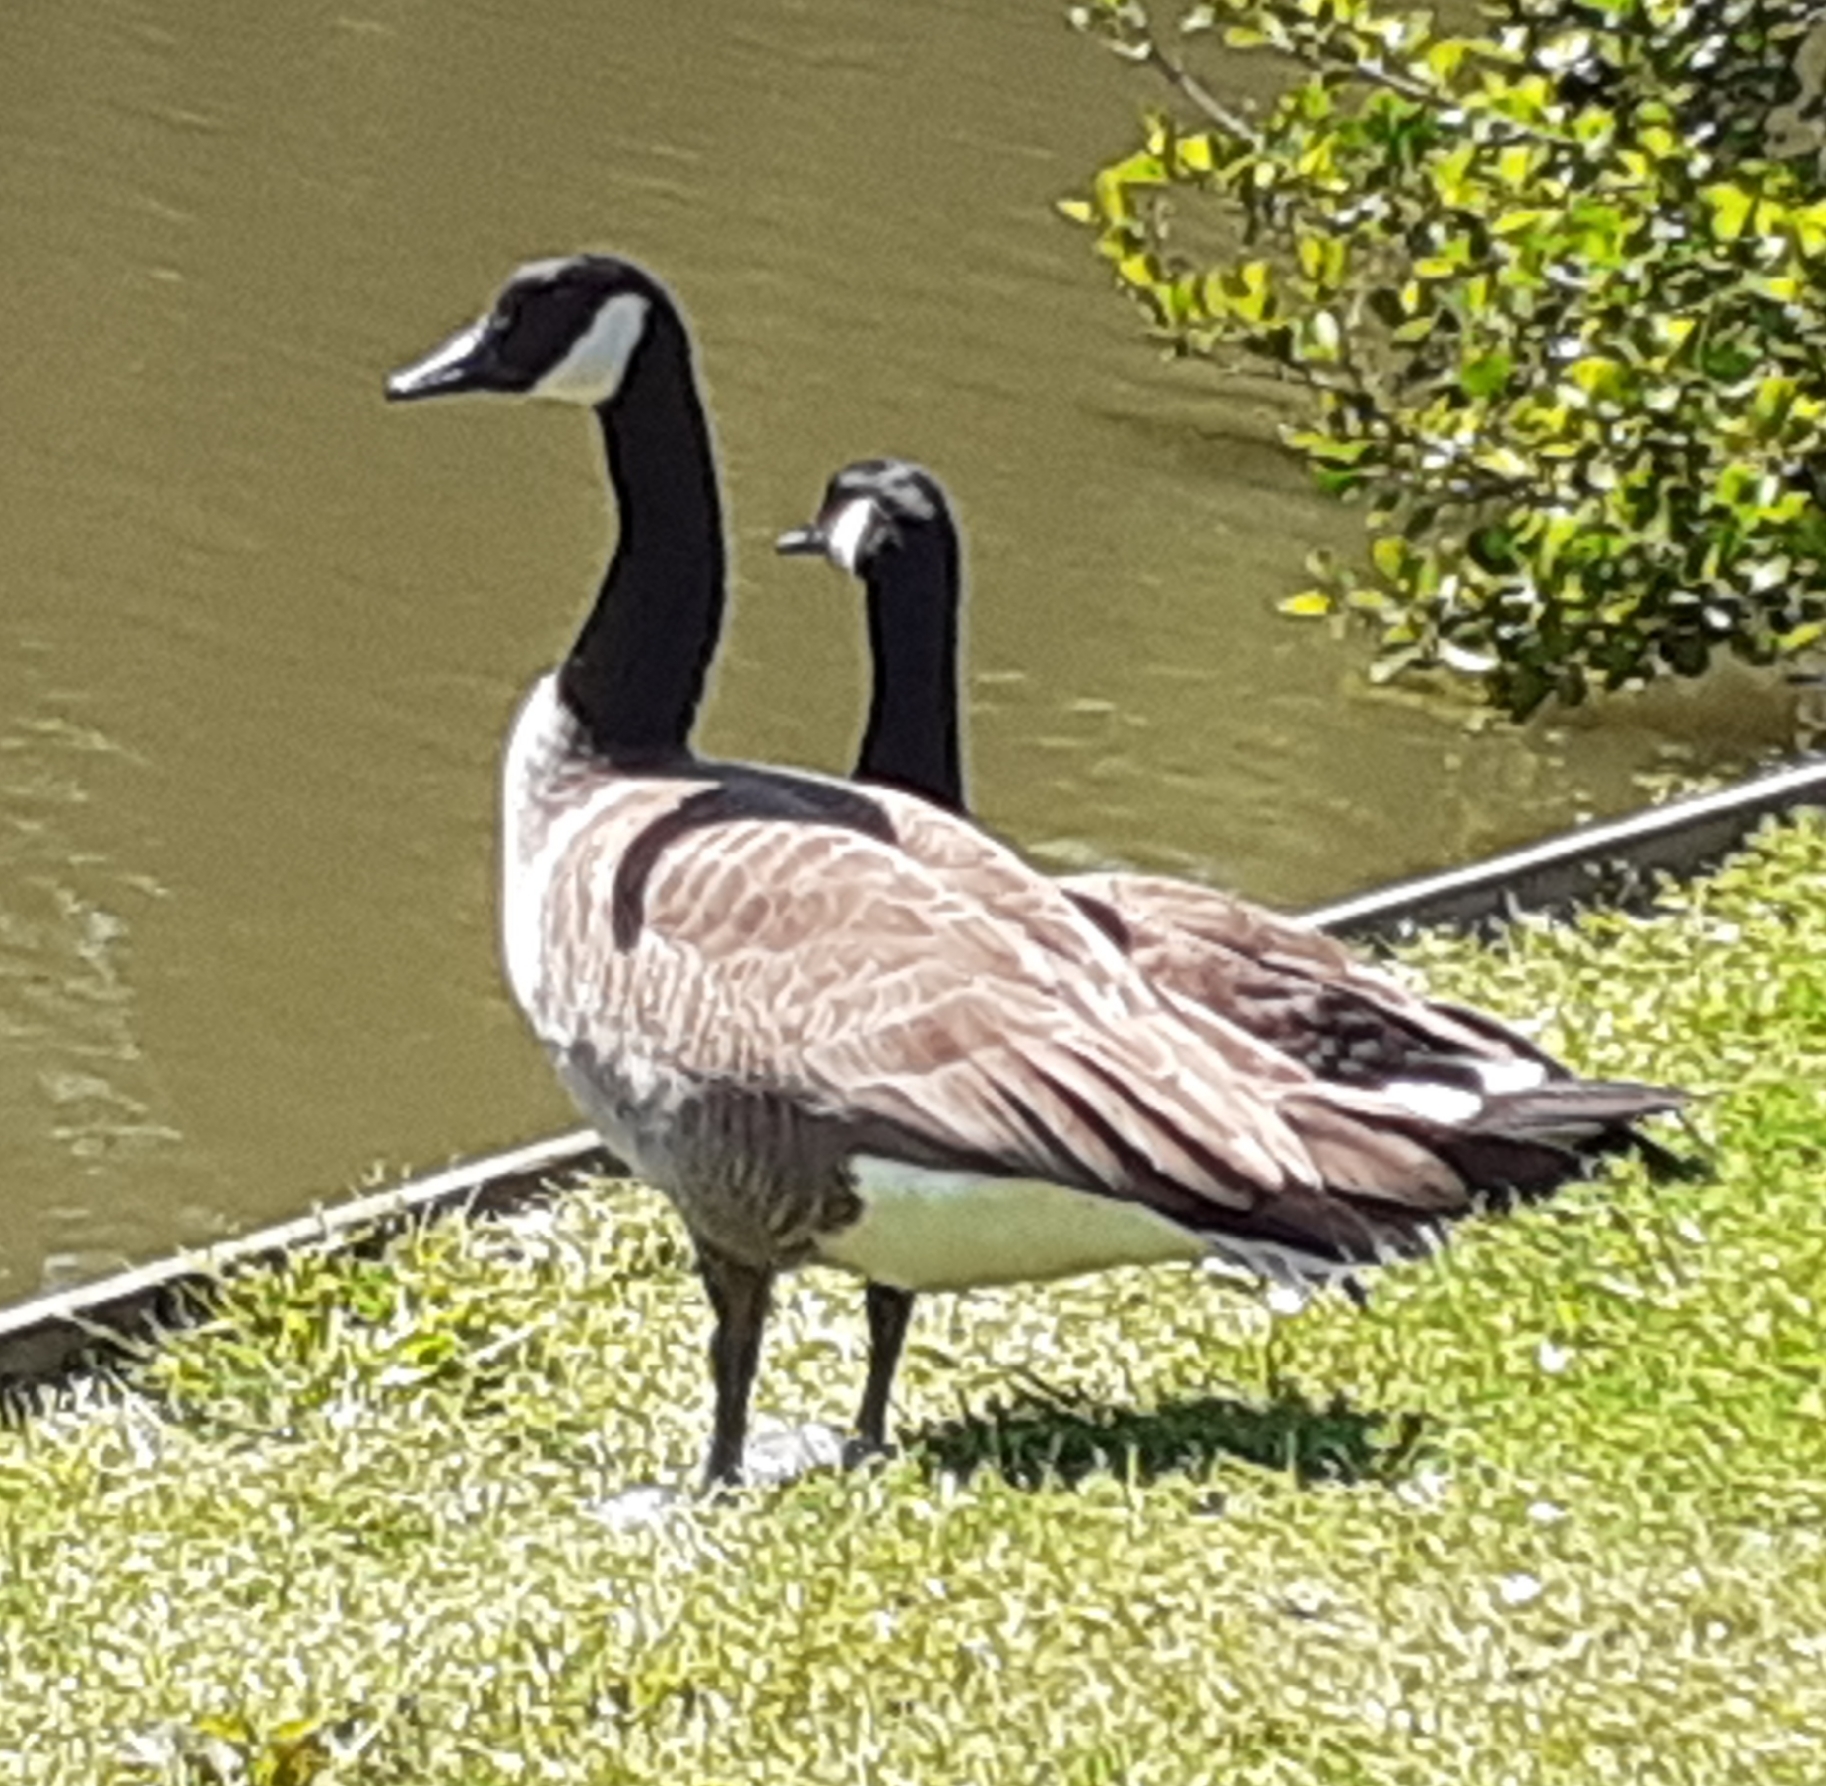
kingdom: Animalia
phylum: Chordata
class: Aves
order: Anseriformes
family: Anatidae
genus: Branta
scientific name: Branta canadensis
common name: Canada goose
